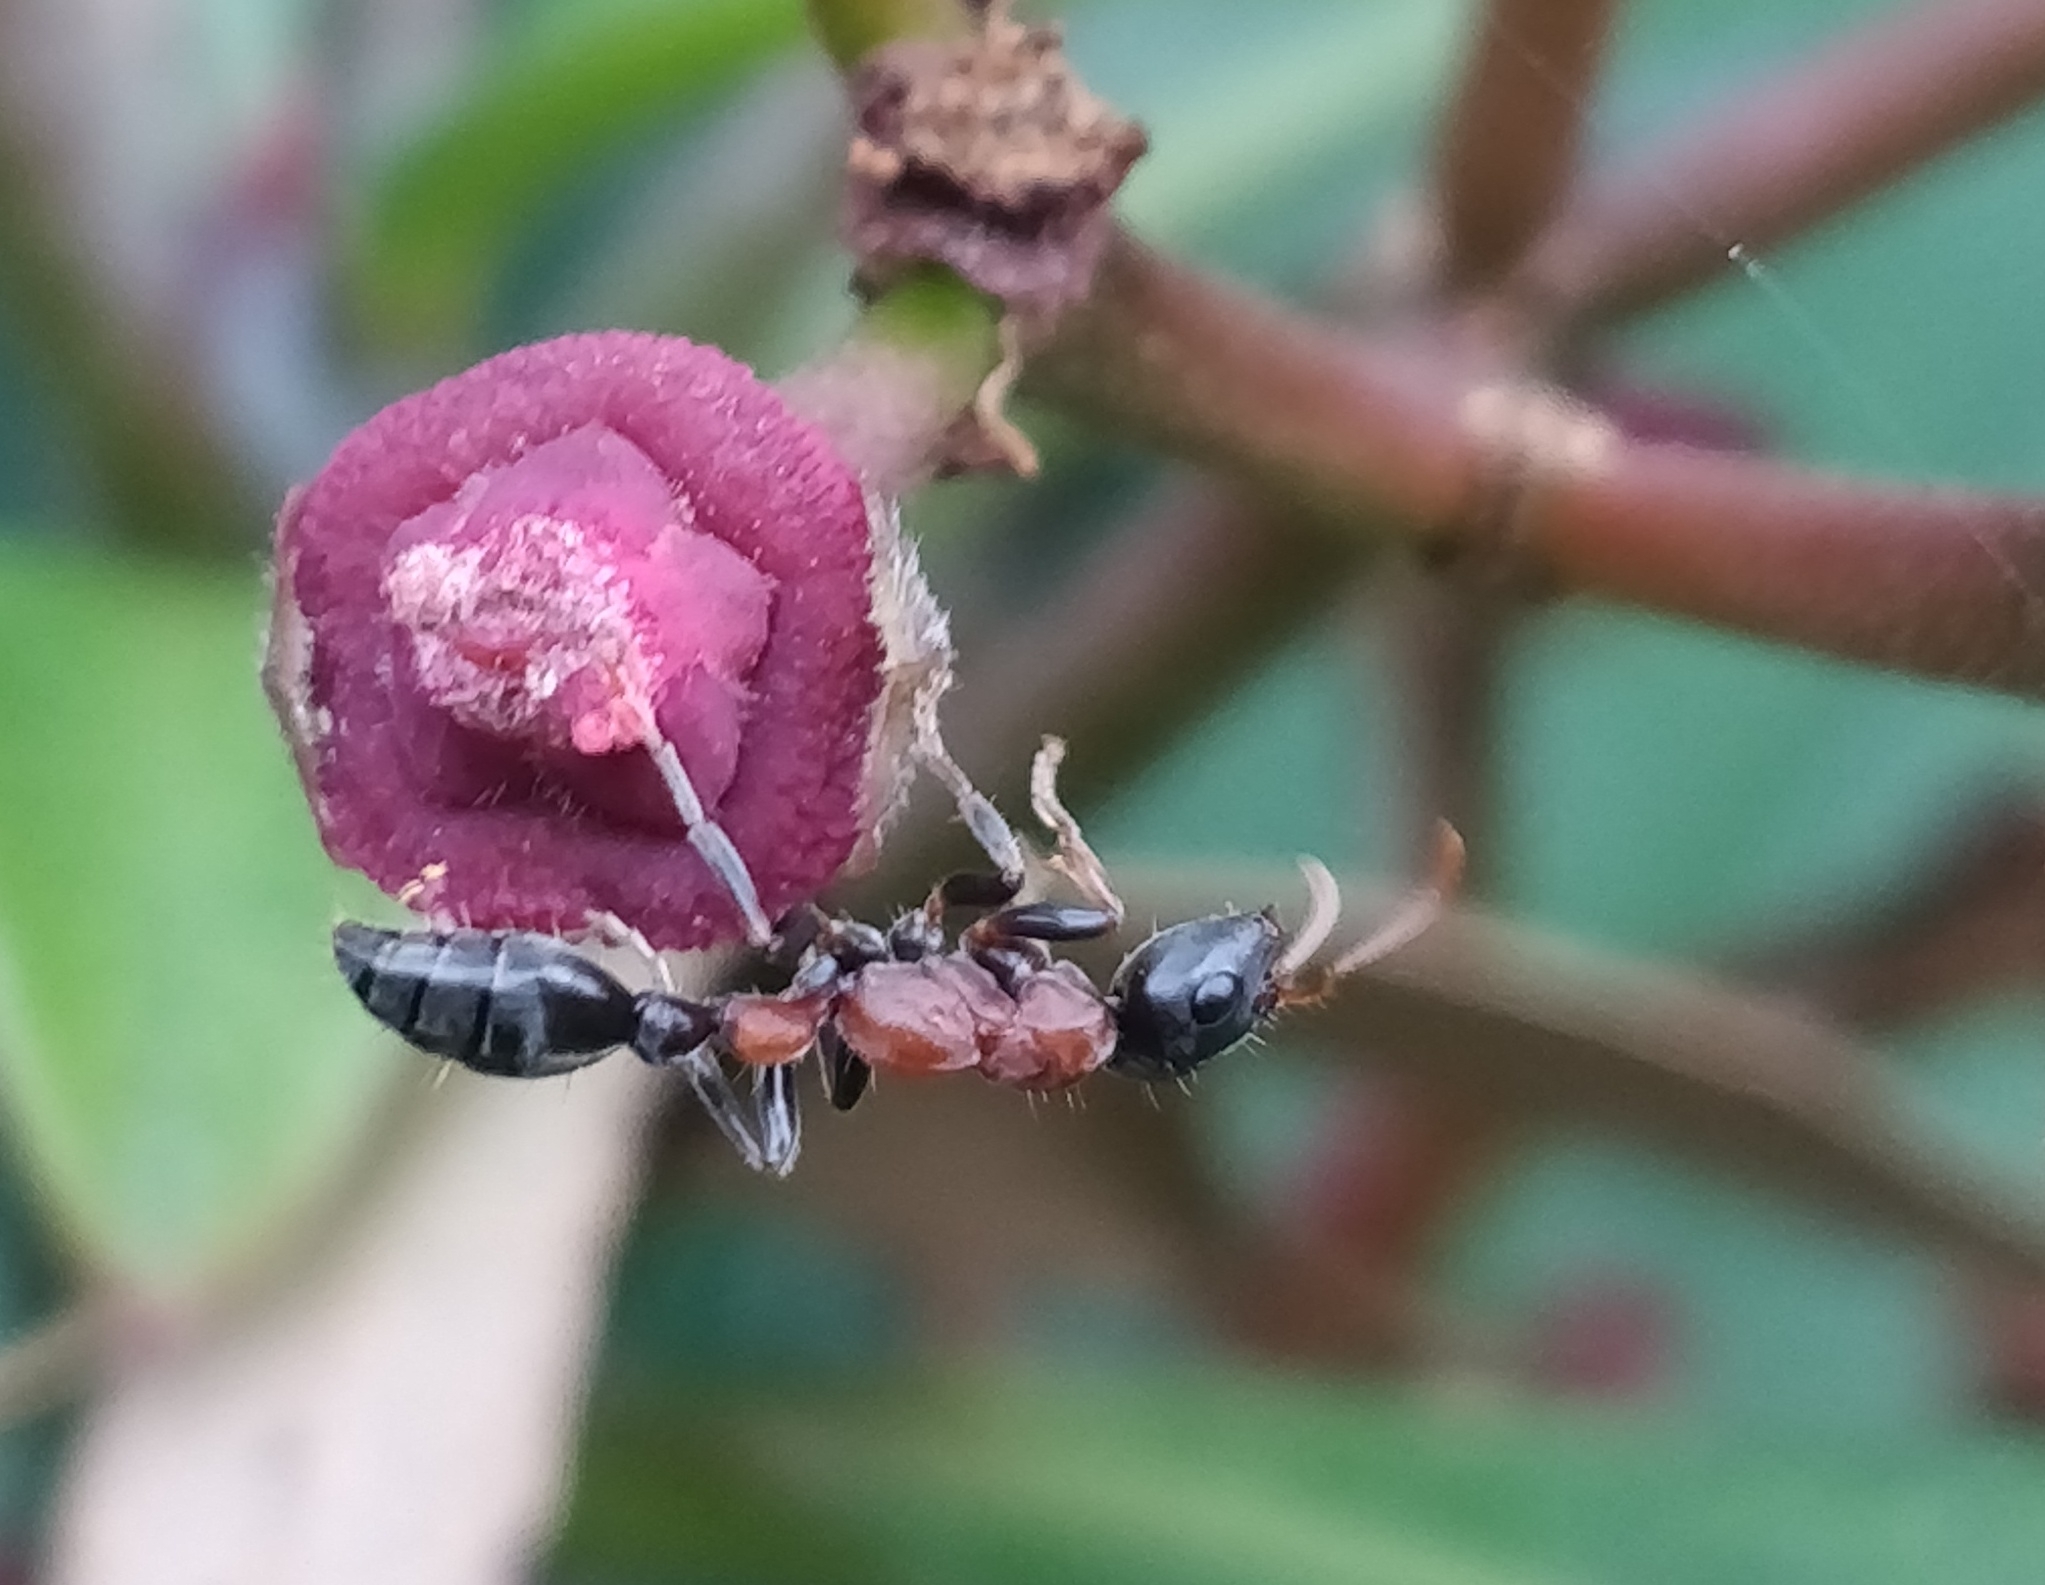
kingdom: Animalia
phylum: Arthropoda
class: Insecta
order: Hymenoptera
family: Formicidae
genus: Tetraponera
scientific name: Tetraponera rufonigra
